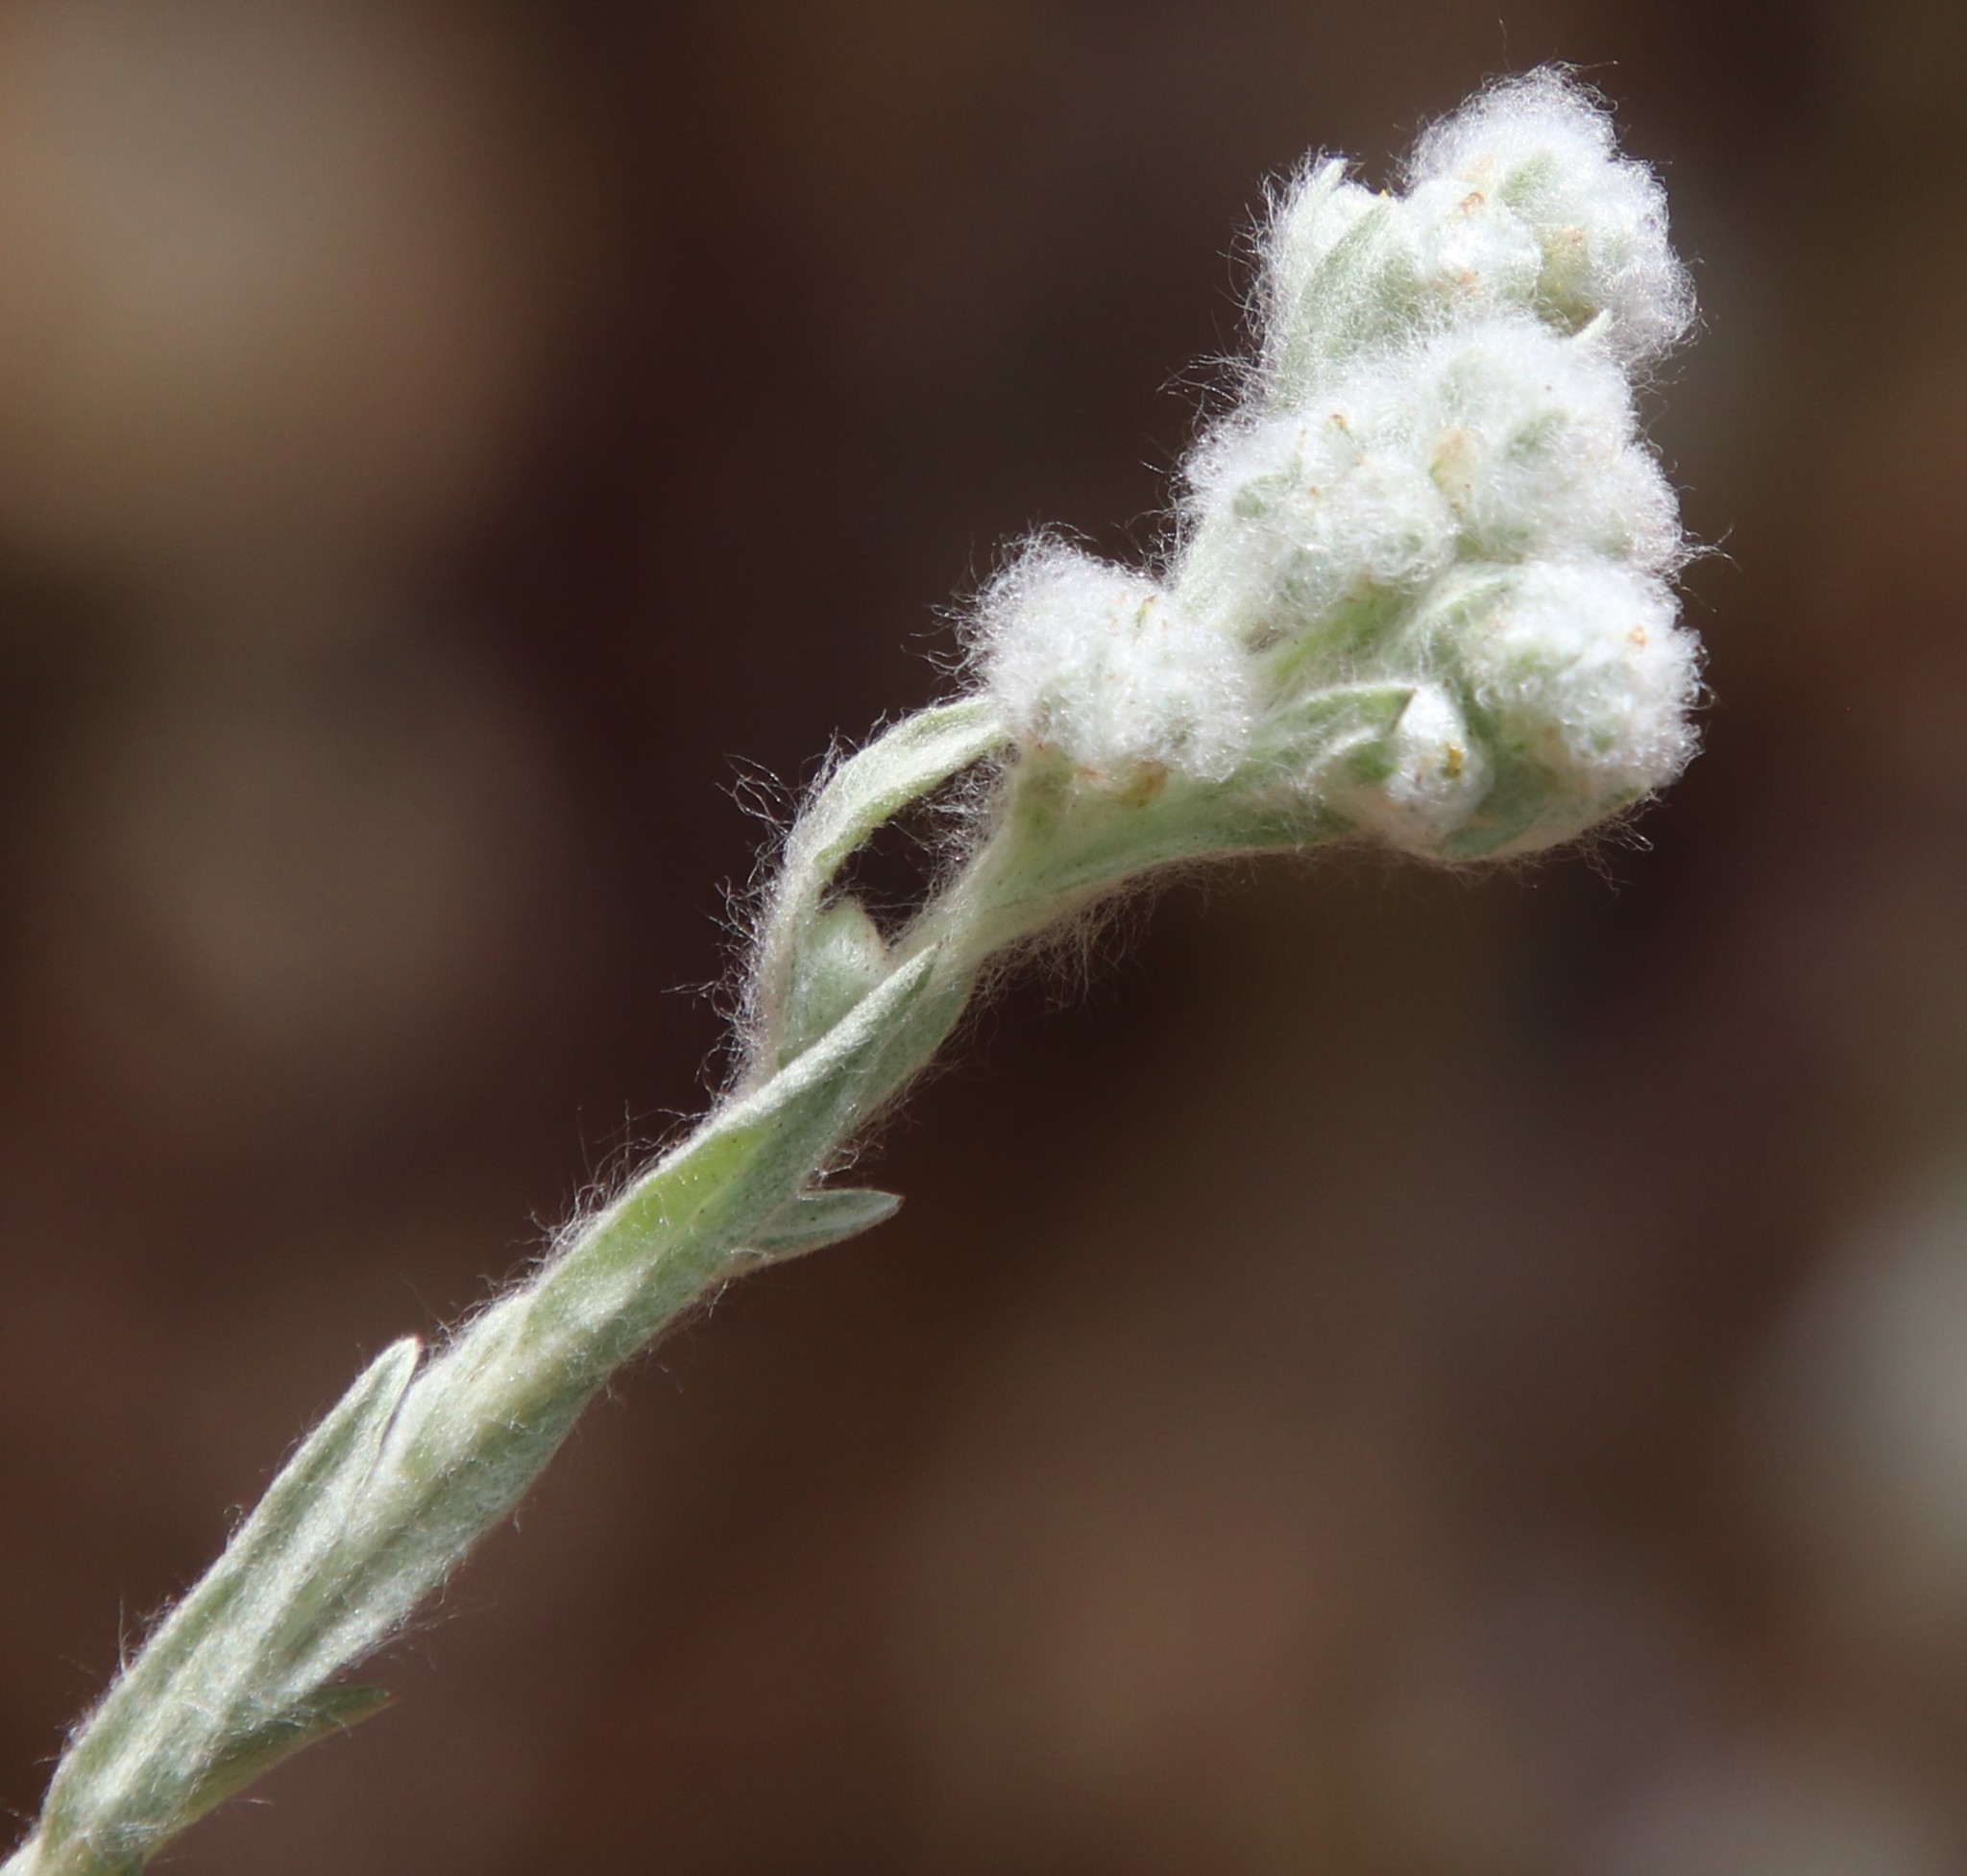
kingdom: Plantae
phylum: Tracheophyta
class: Magnoliopsida
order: Asterales
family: Asteraceae
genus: Bombycilaena
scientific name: Bombycilaena californica
